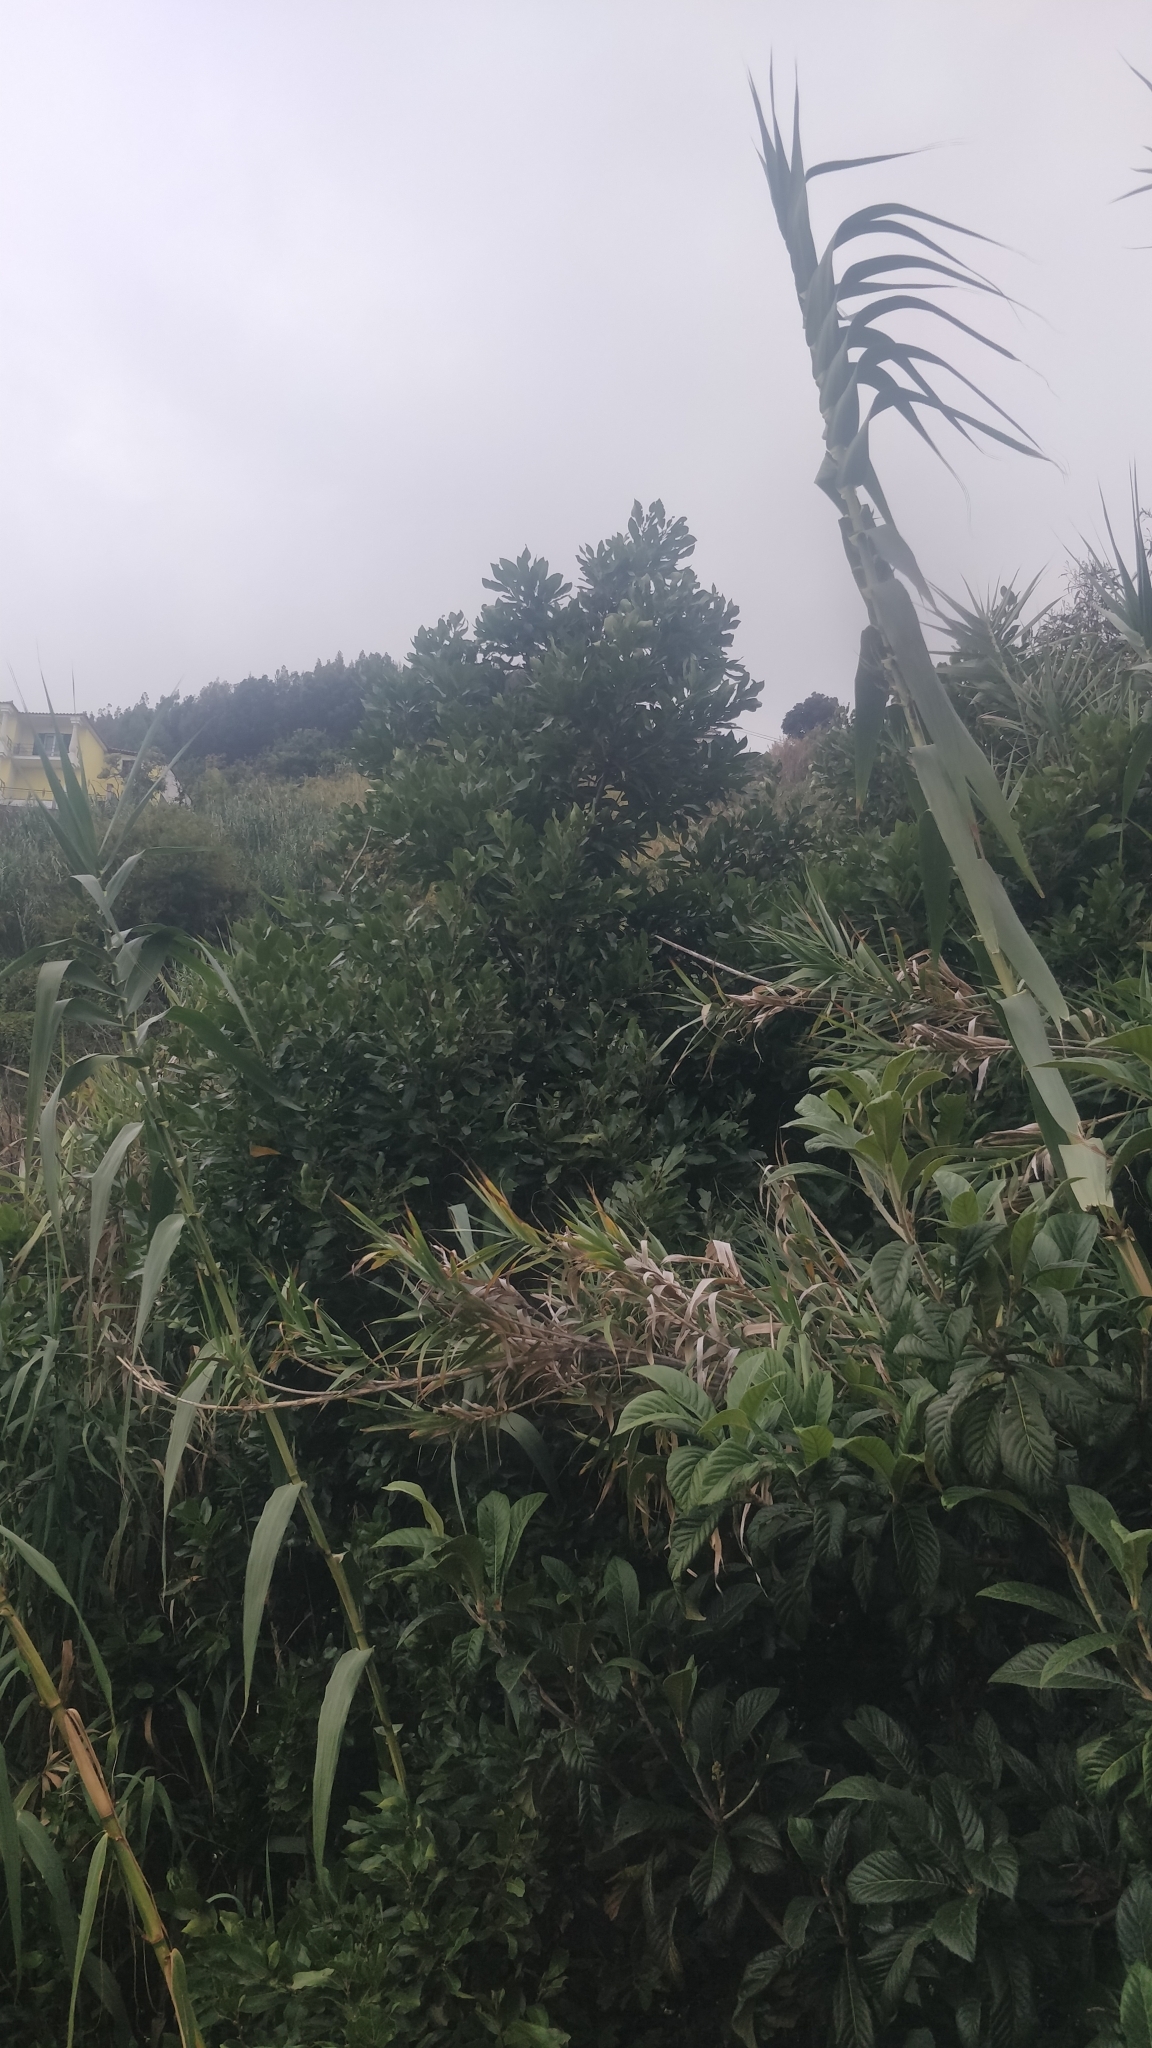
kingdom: Plantae
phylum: Tracheophyta
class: Magnoliopsida
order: Laurales
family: Lauraceae
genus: Laurus
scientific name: Laurus novocanariensis
